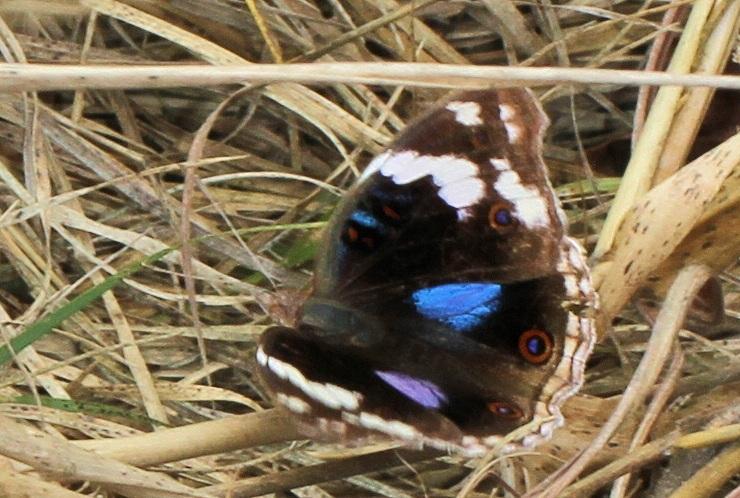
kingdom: Animalia
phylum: Arthropoda
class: Insecta
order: Lepidoptera
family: Nymphalidae
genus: Junonia
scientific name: Junonia oenone
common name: Dark blue pansy
